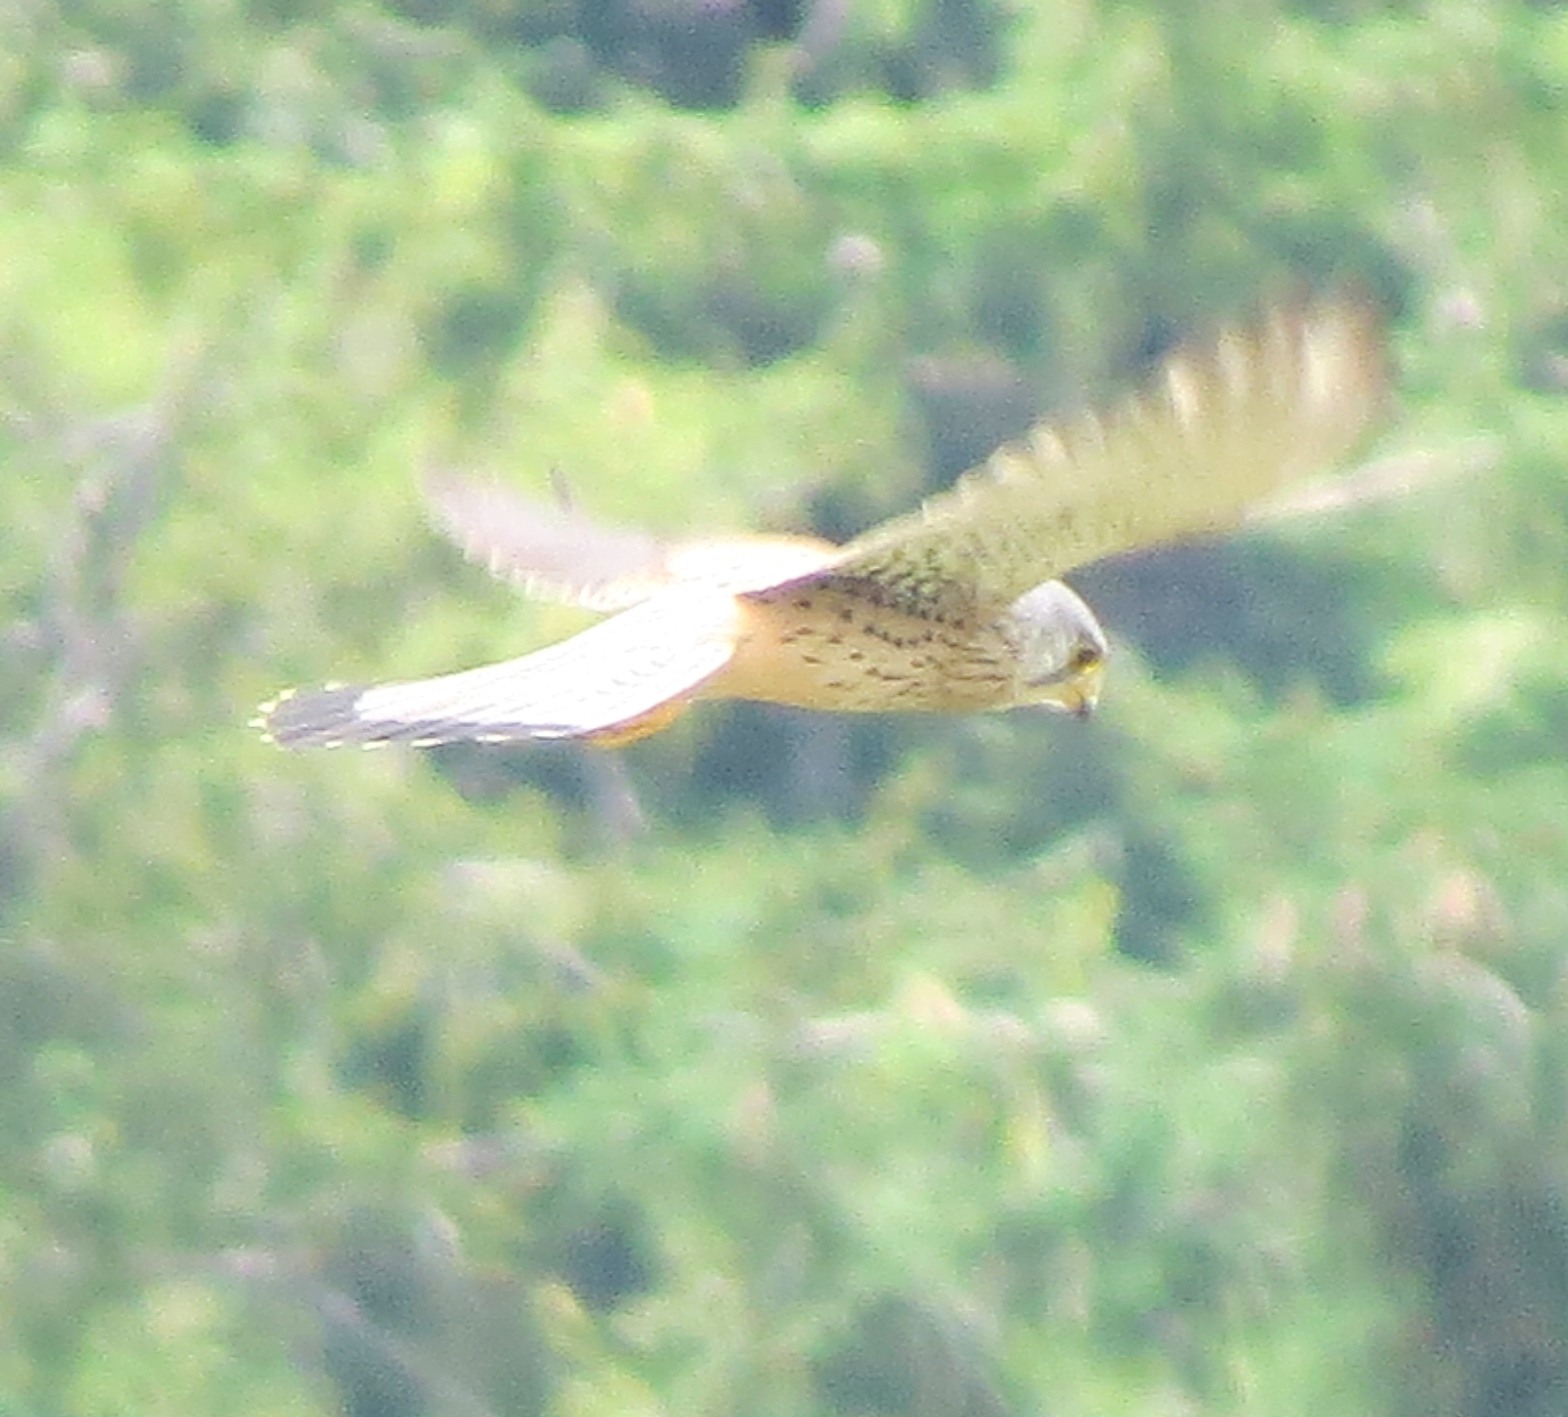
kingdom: Animalia
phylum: Chordata
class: Aves
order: Falconiformes
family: Falconidae
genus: Falco
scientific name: Falco tinnunculus
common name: Common kestrel
